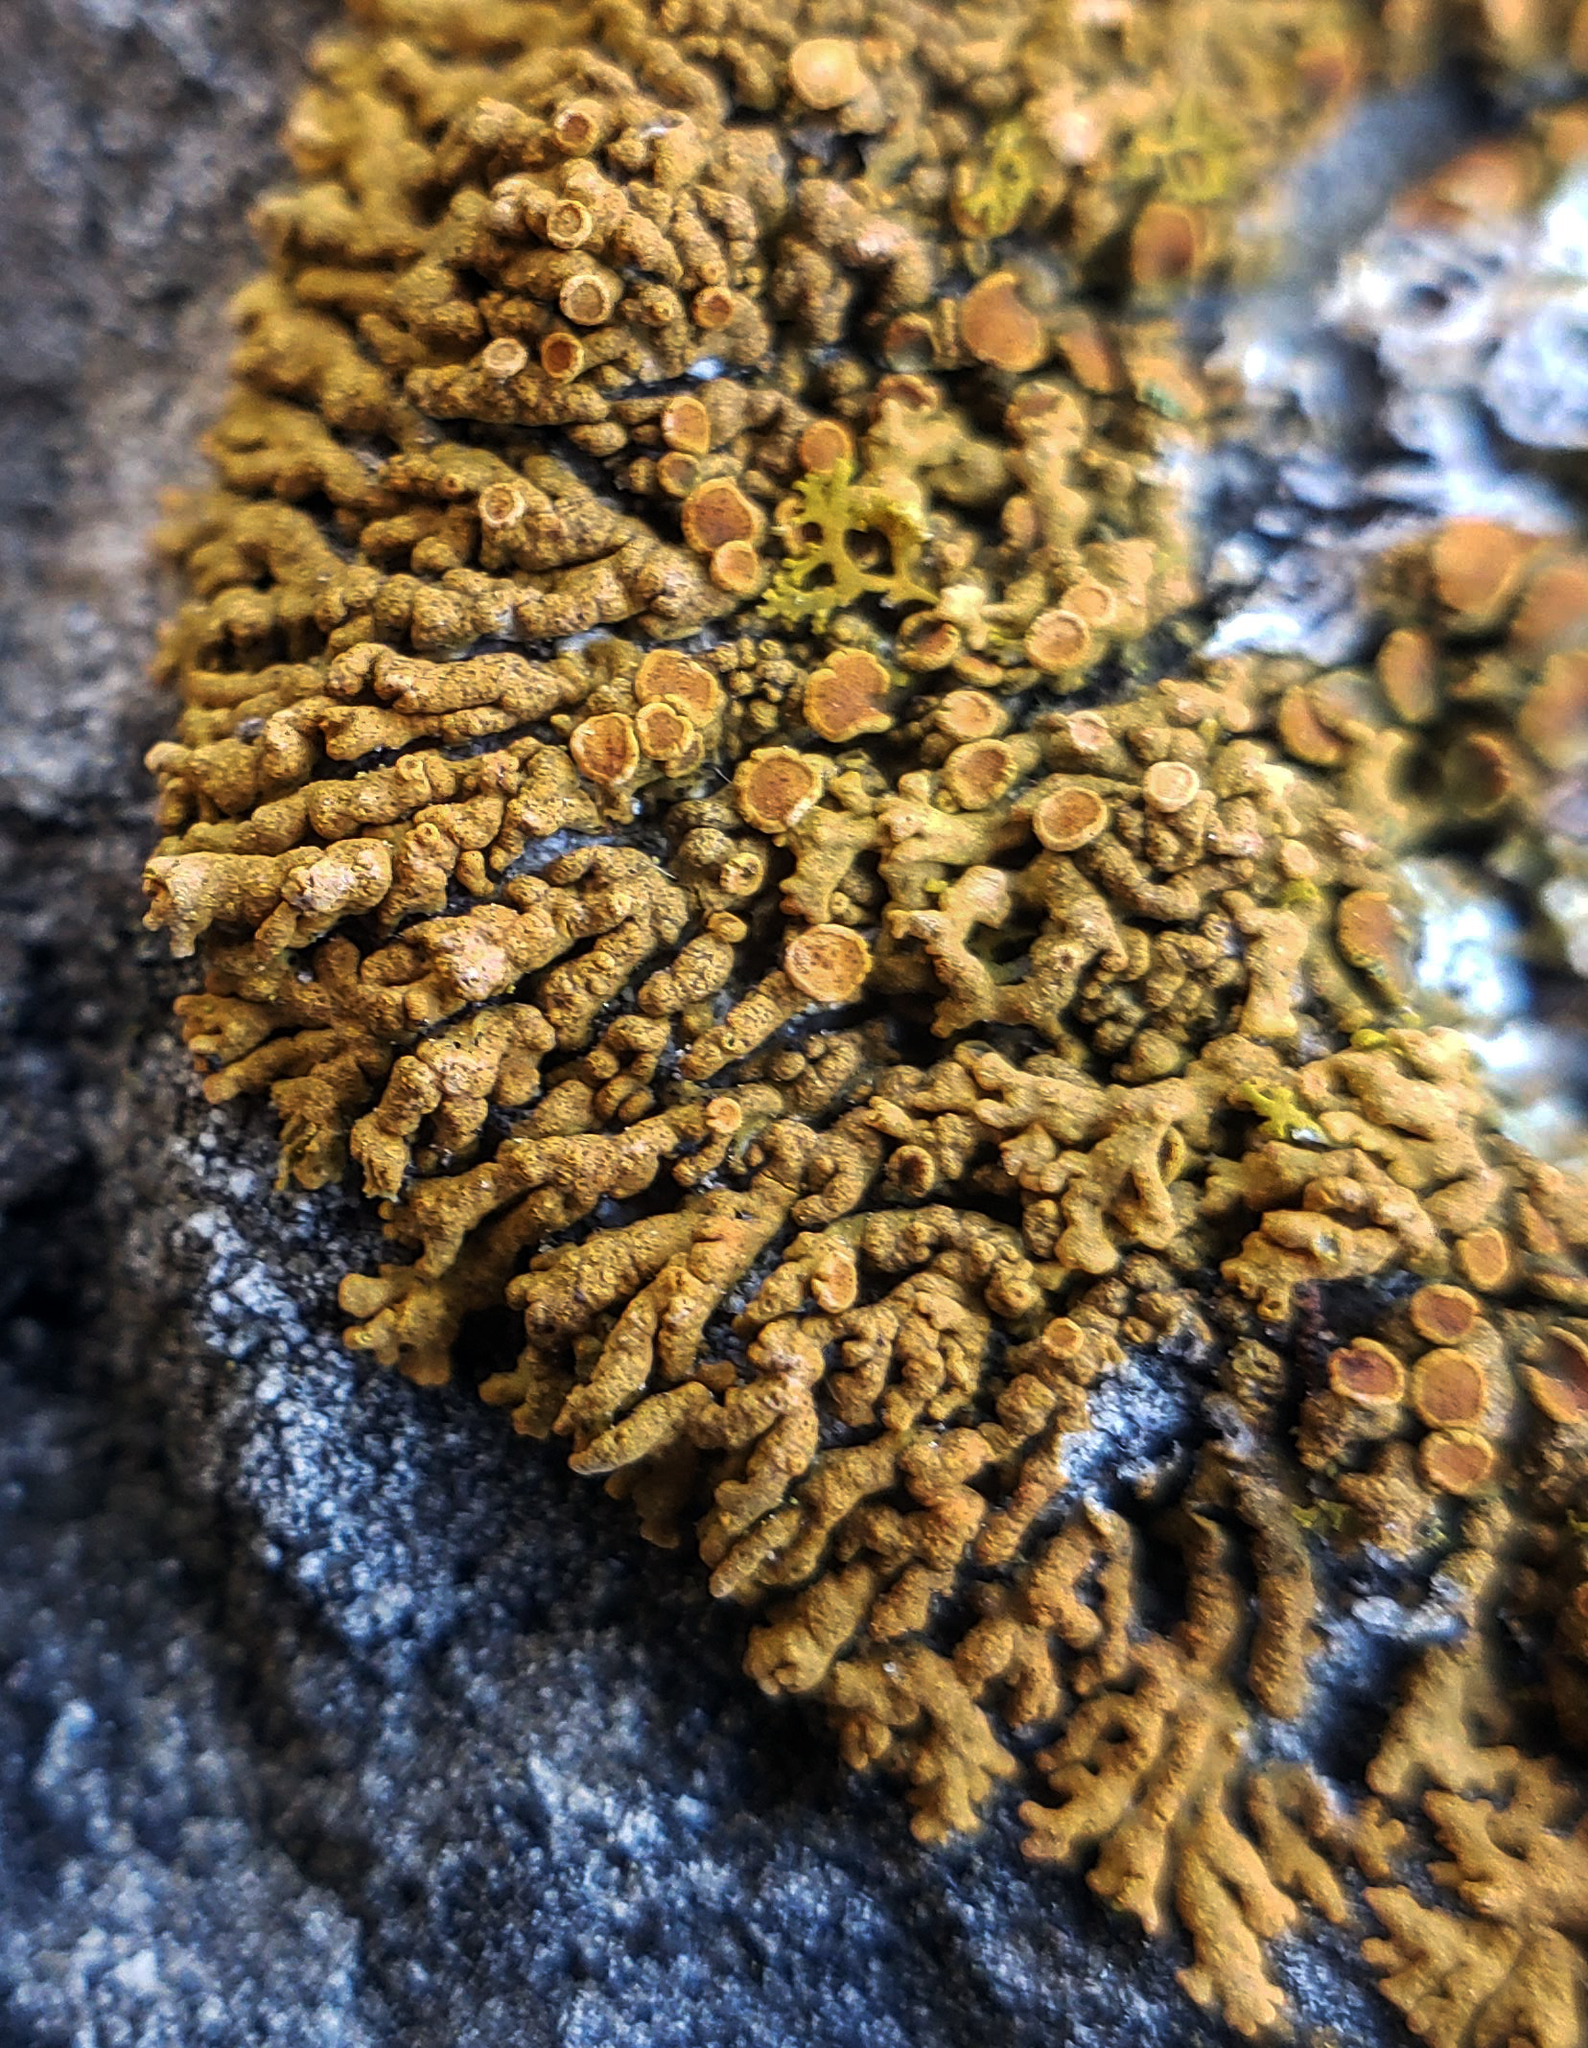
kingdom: Fungi
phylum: Ascomycota
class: Lecanoromycetes
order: Teloschistales
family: Teloschistaceae
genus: Xanthoria
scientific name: Xanthoria elegans
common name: Elegant sunburst lichen
